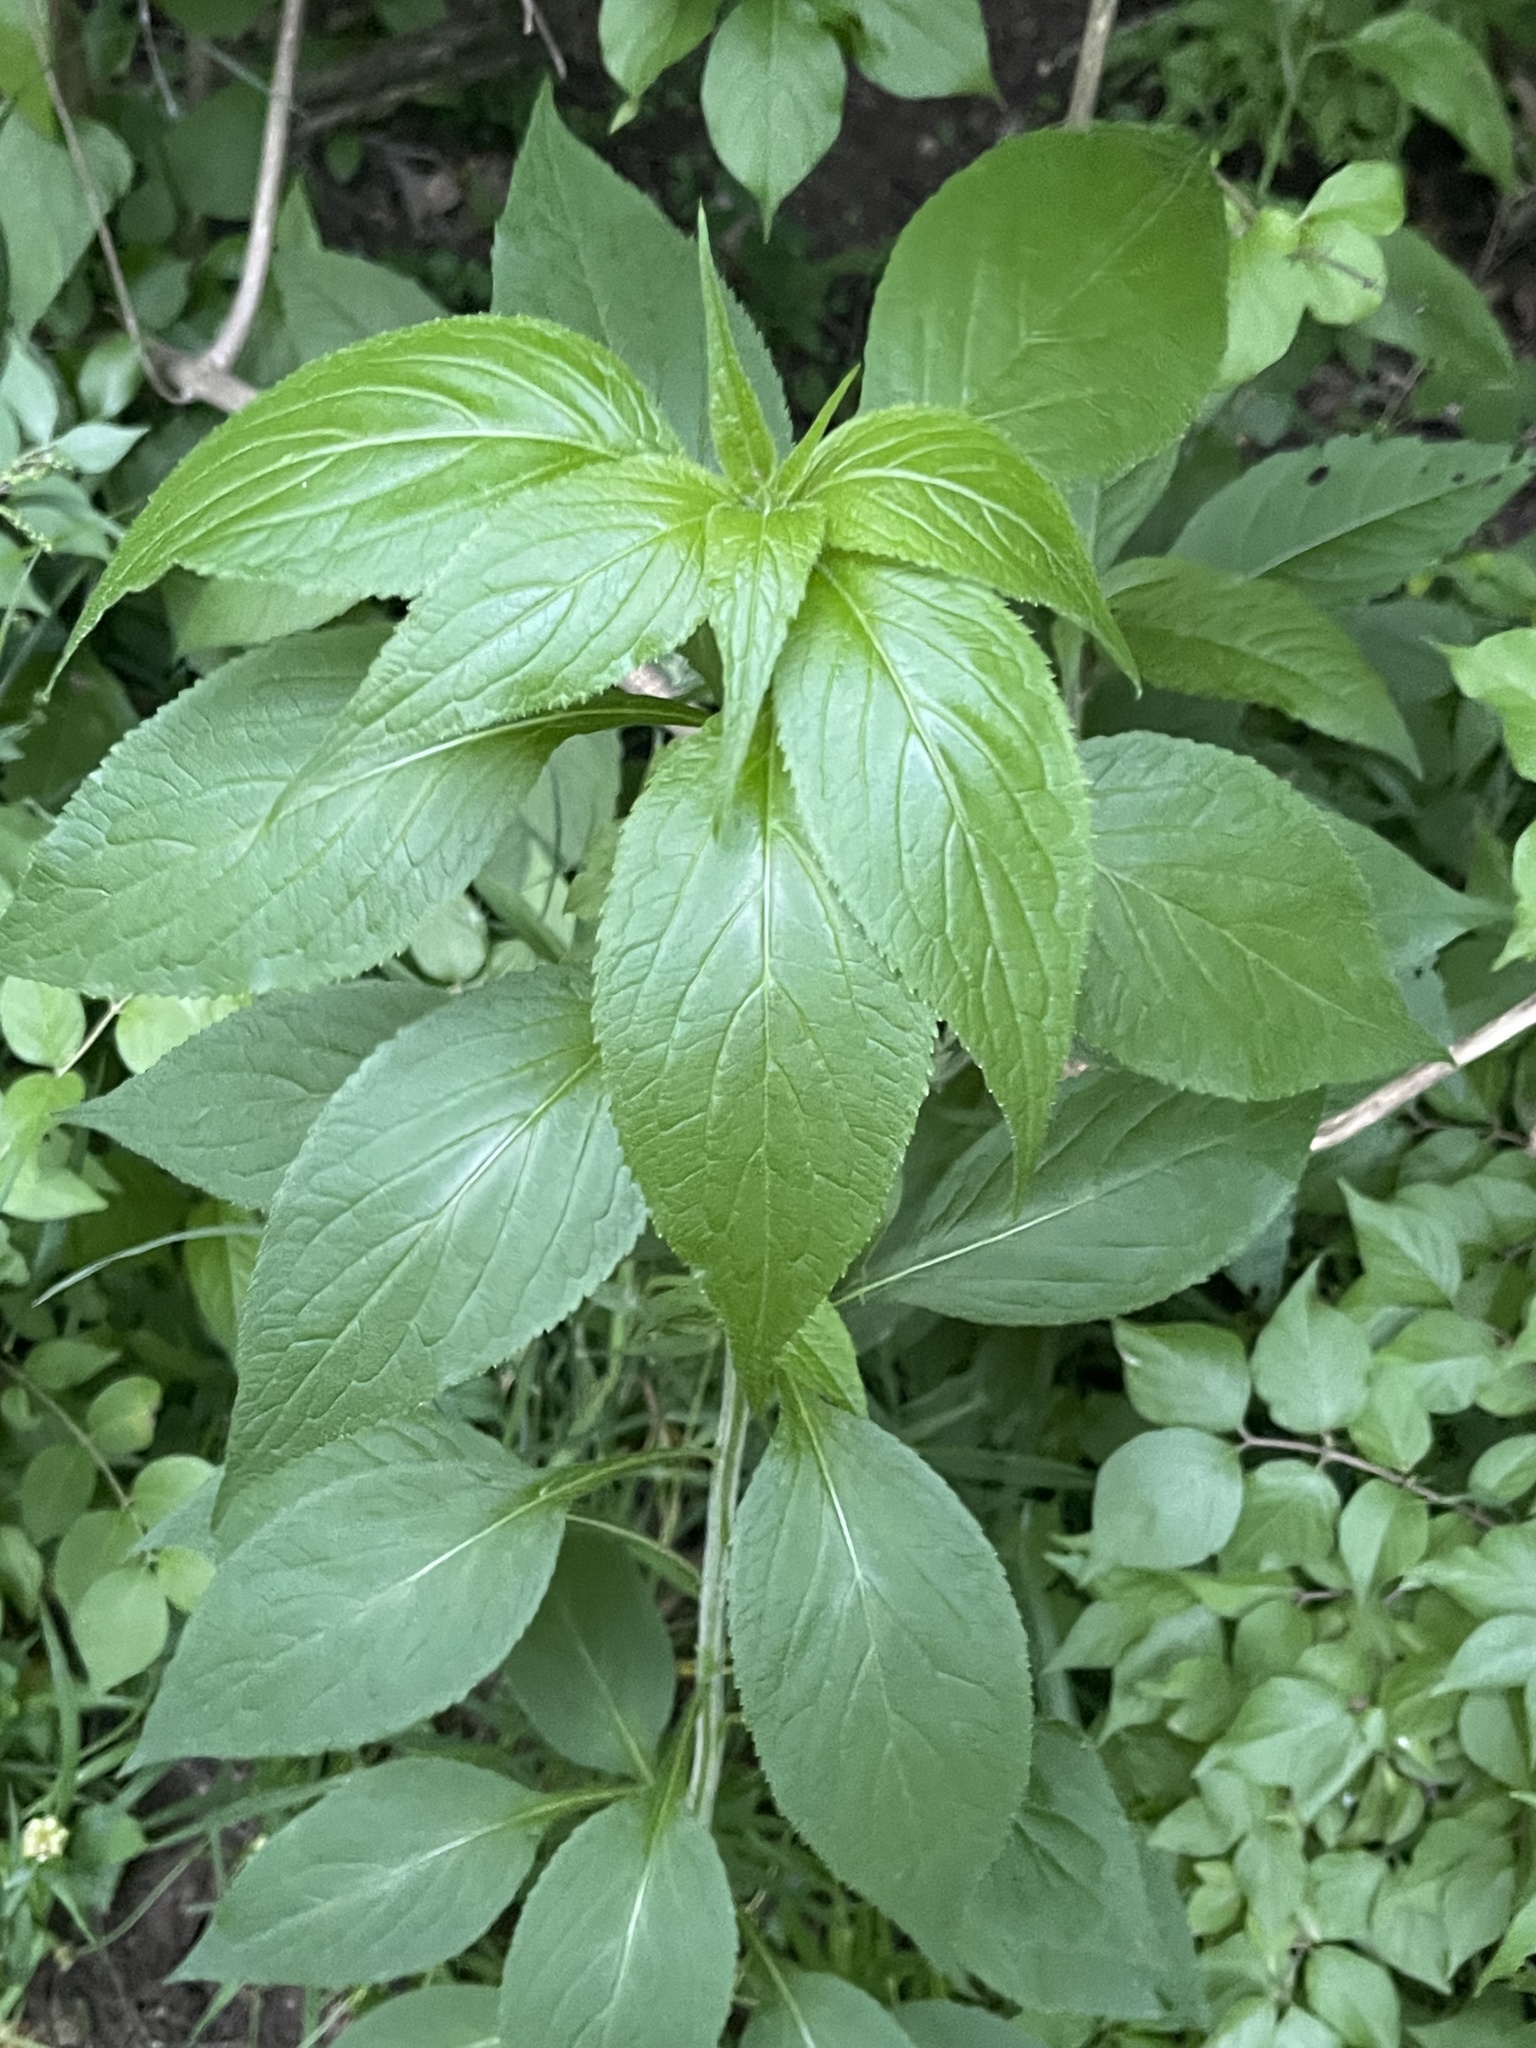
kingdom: Plantae
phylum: Tracheophyta
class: Magnoliopsida
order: Asterales
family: Campanulaceae
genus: Campanulastrum
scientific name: Campanulastrum americanum
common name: American bellflower
